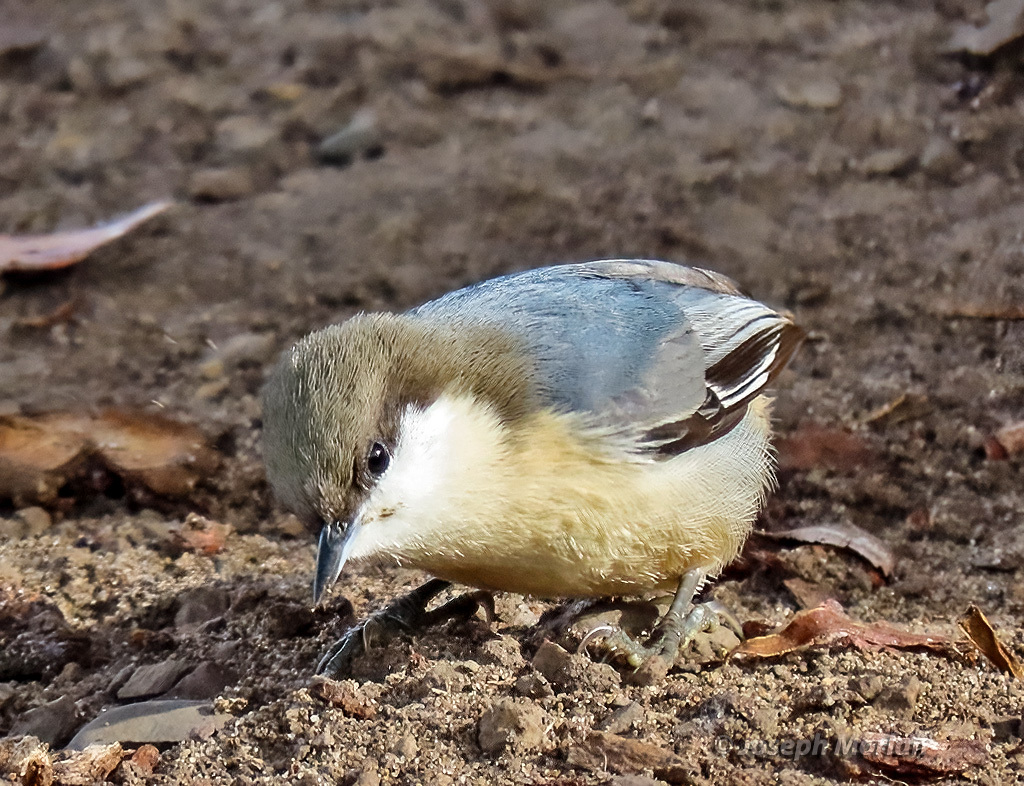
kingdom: Animalia
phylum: Chordata
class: Aves
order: Passeriformes
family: Sittidae
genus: Sitta
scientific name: Sitta pygmaea
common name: Pygmy nuthatch
